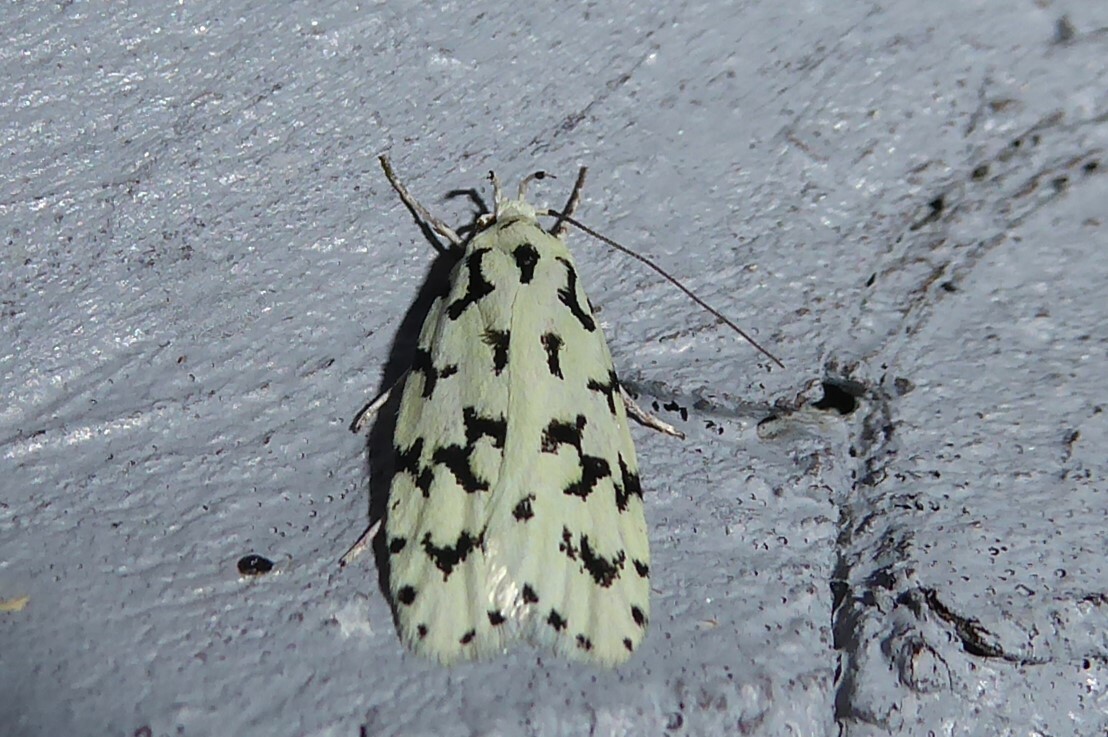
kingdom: Animalia
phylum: Arthropoda
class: Insecta
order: Lepidoptera
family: Oecophoridae
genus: Izatha
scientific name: Izatha huttoni
